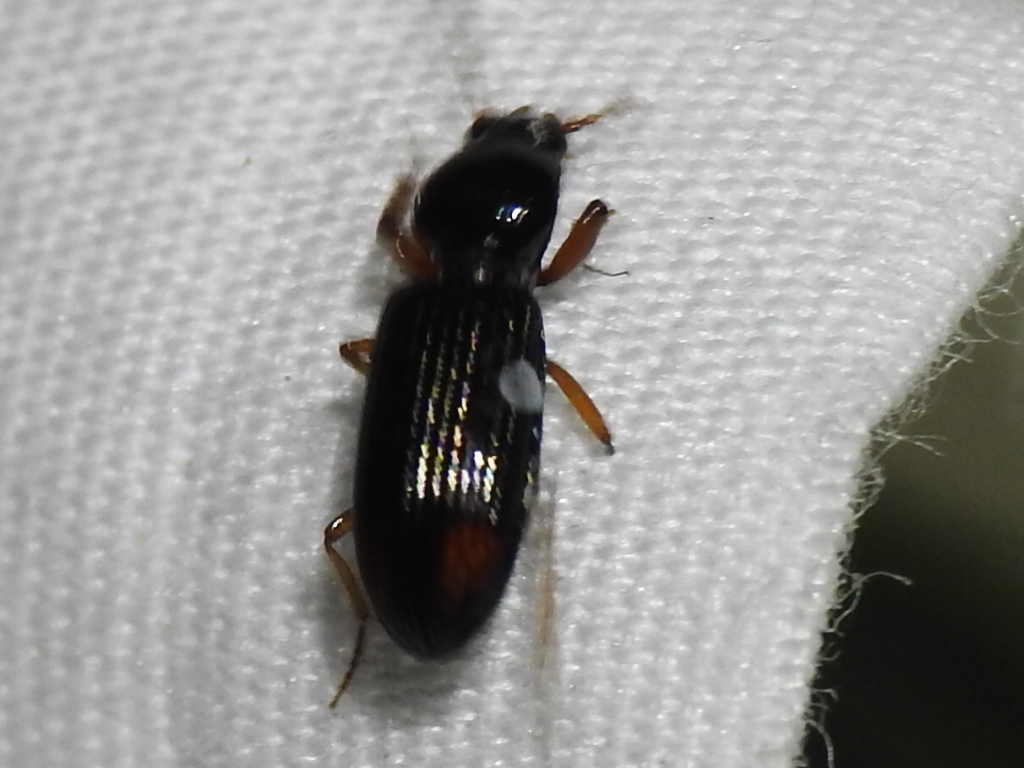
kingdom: Animalia
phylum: Arthropoda
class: Insecta
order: Coleoptera
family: Carabidae
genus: Aspidoglossa
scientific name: Aspidoglossa subangulata
